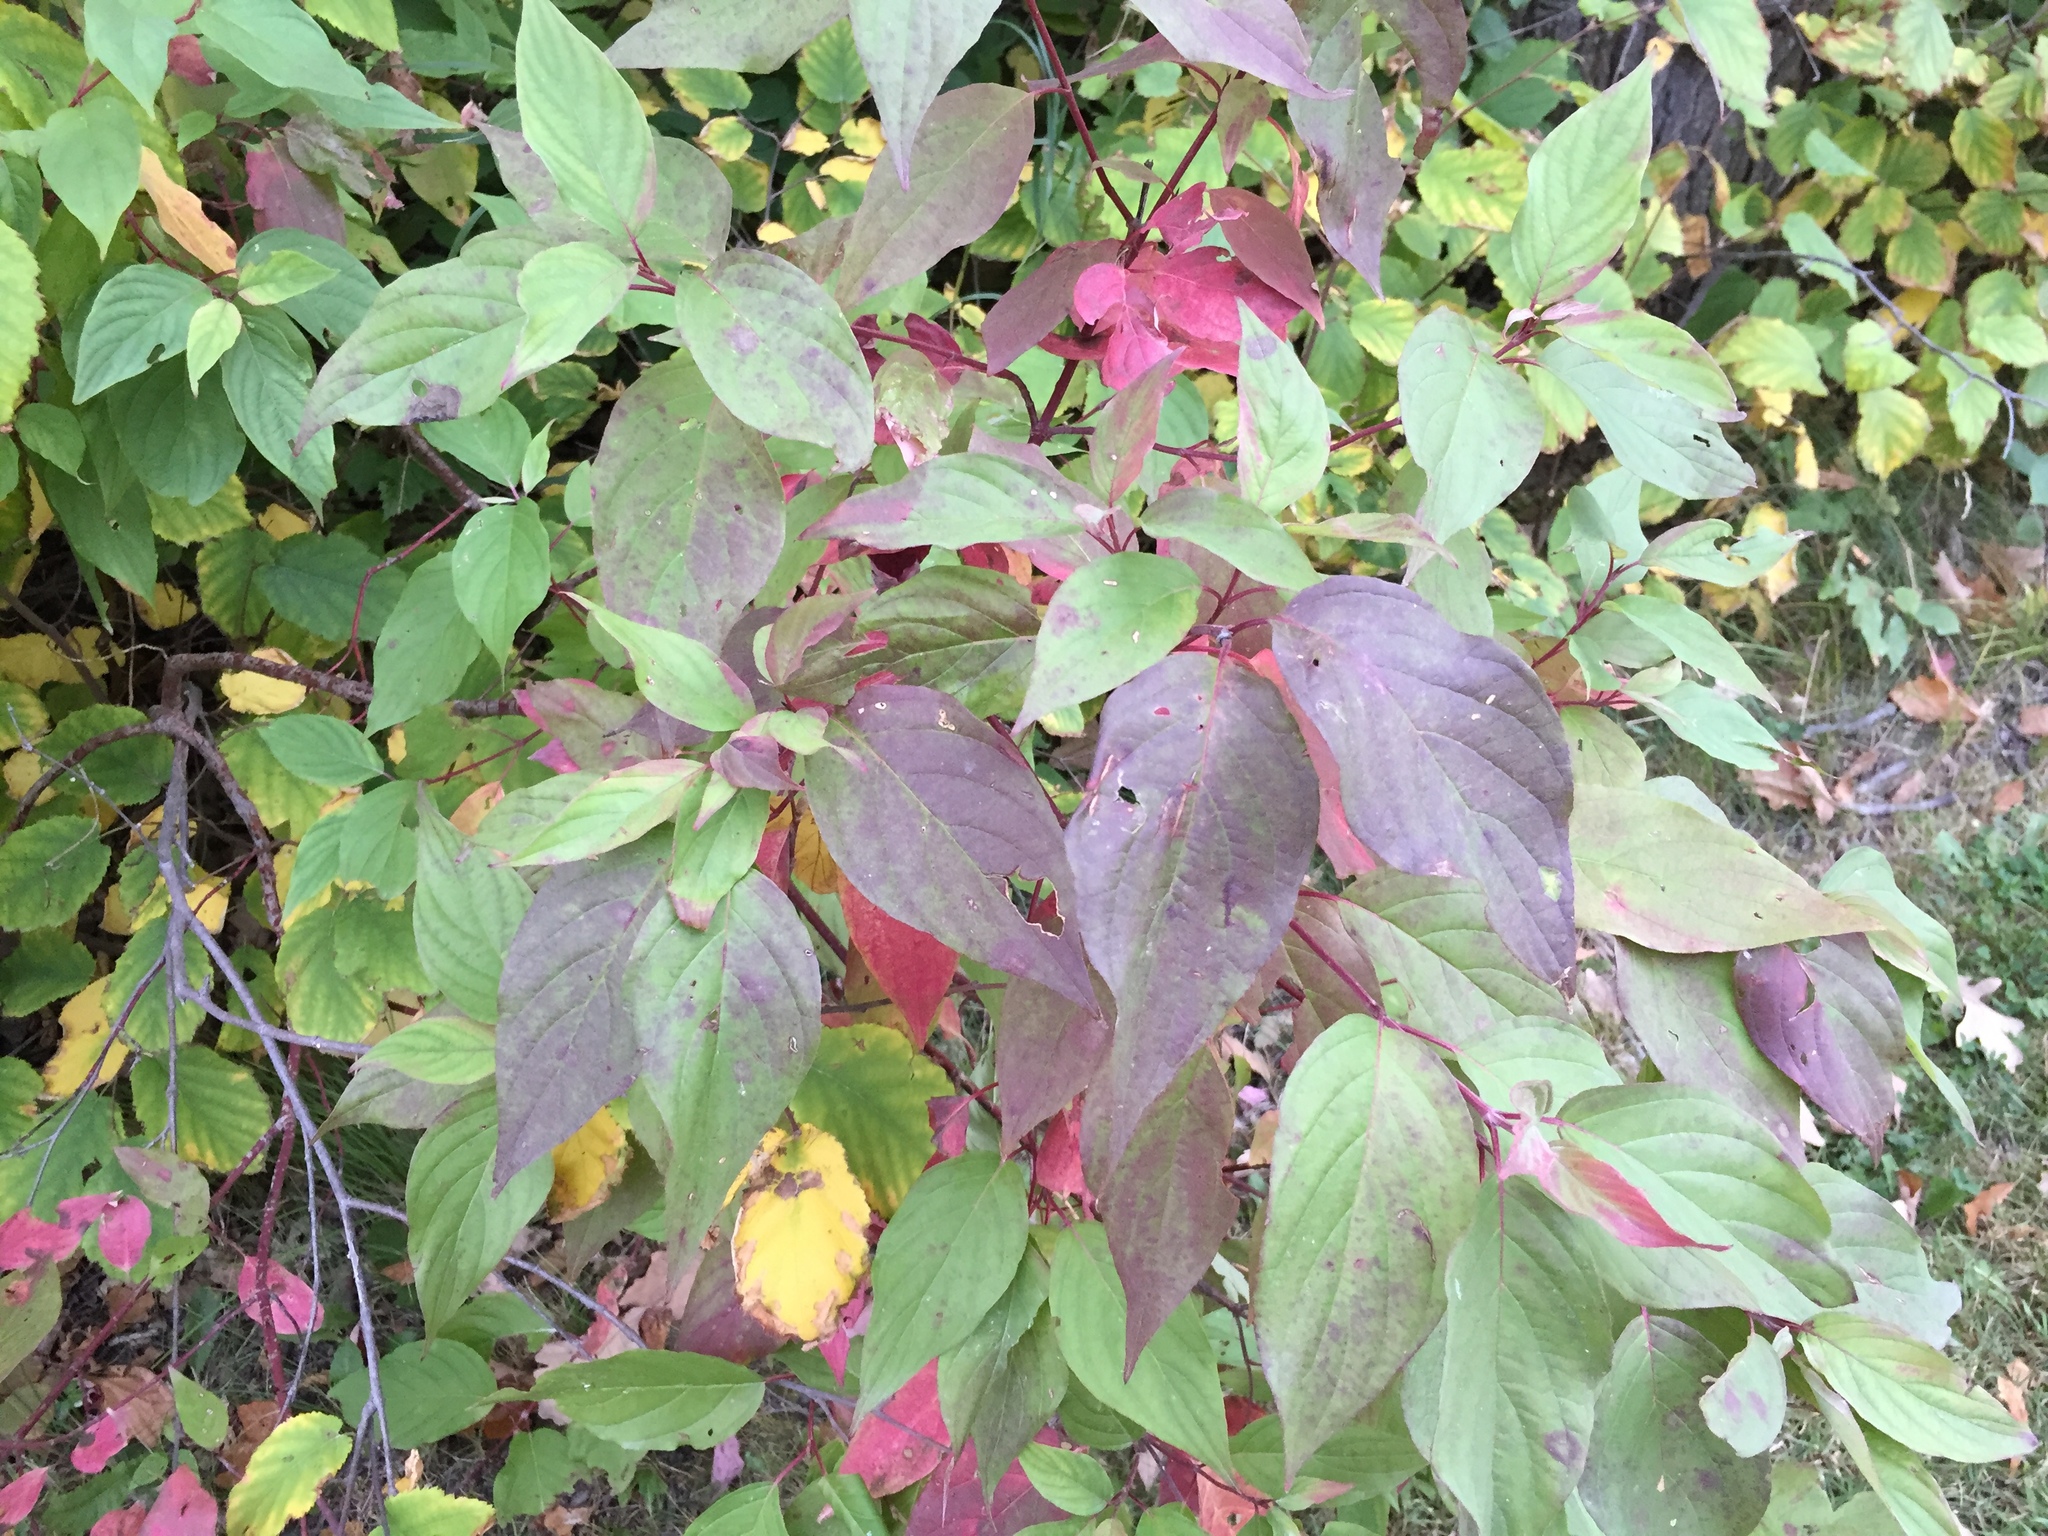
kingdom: Plantae
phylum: Tracheophyta
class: Magnoliopsida
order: Cornales
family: Cornaceae
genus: Cornus
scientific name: Cornus sericea
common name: Red-osier dogwood
